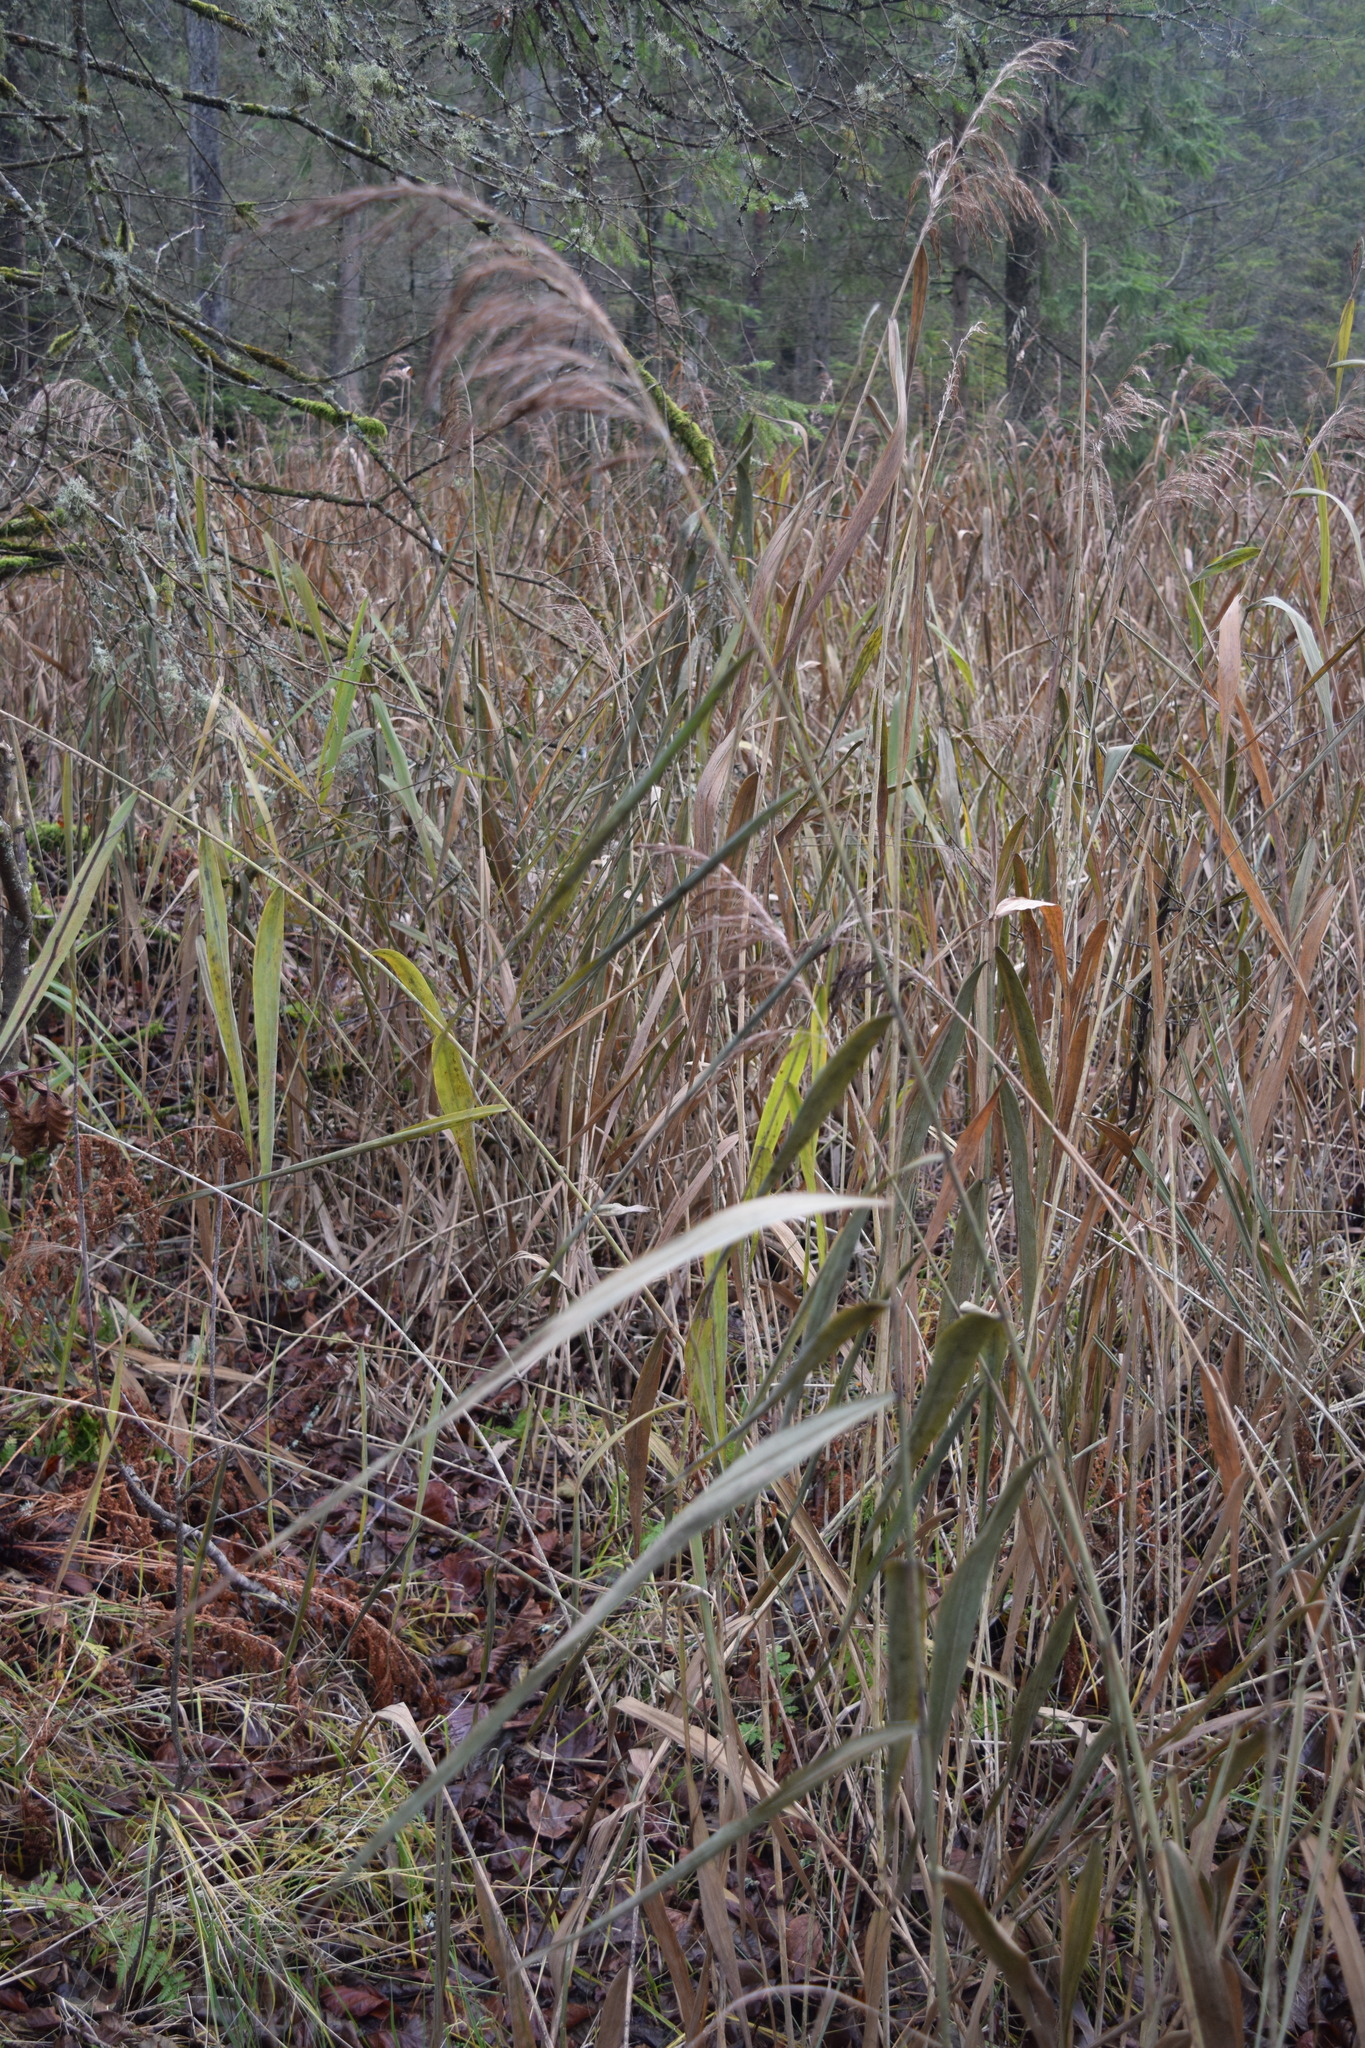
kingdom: Plantae
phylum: Tracheophyta
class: Liliopsida
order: Poales
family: Poaceae
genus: Phragmites
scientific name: Phragmites australis
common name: Common reed
